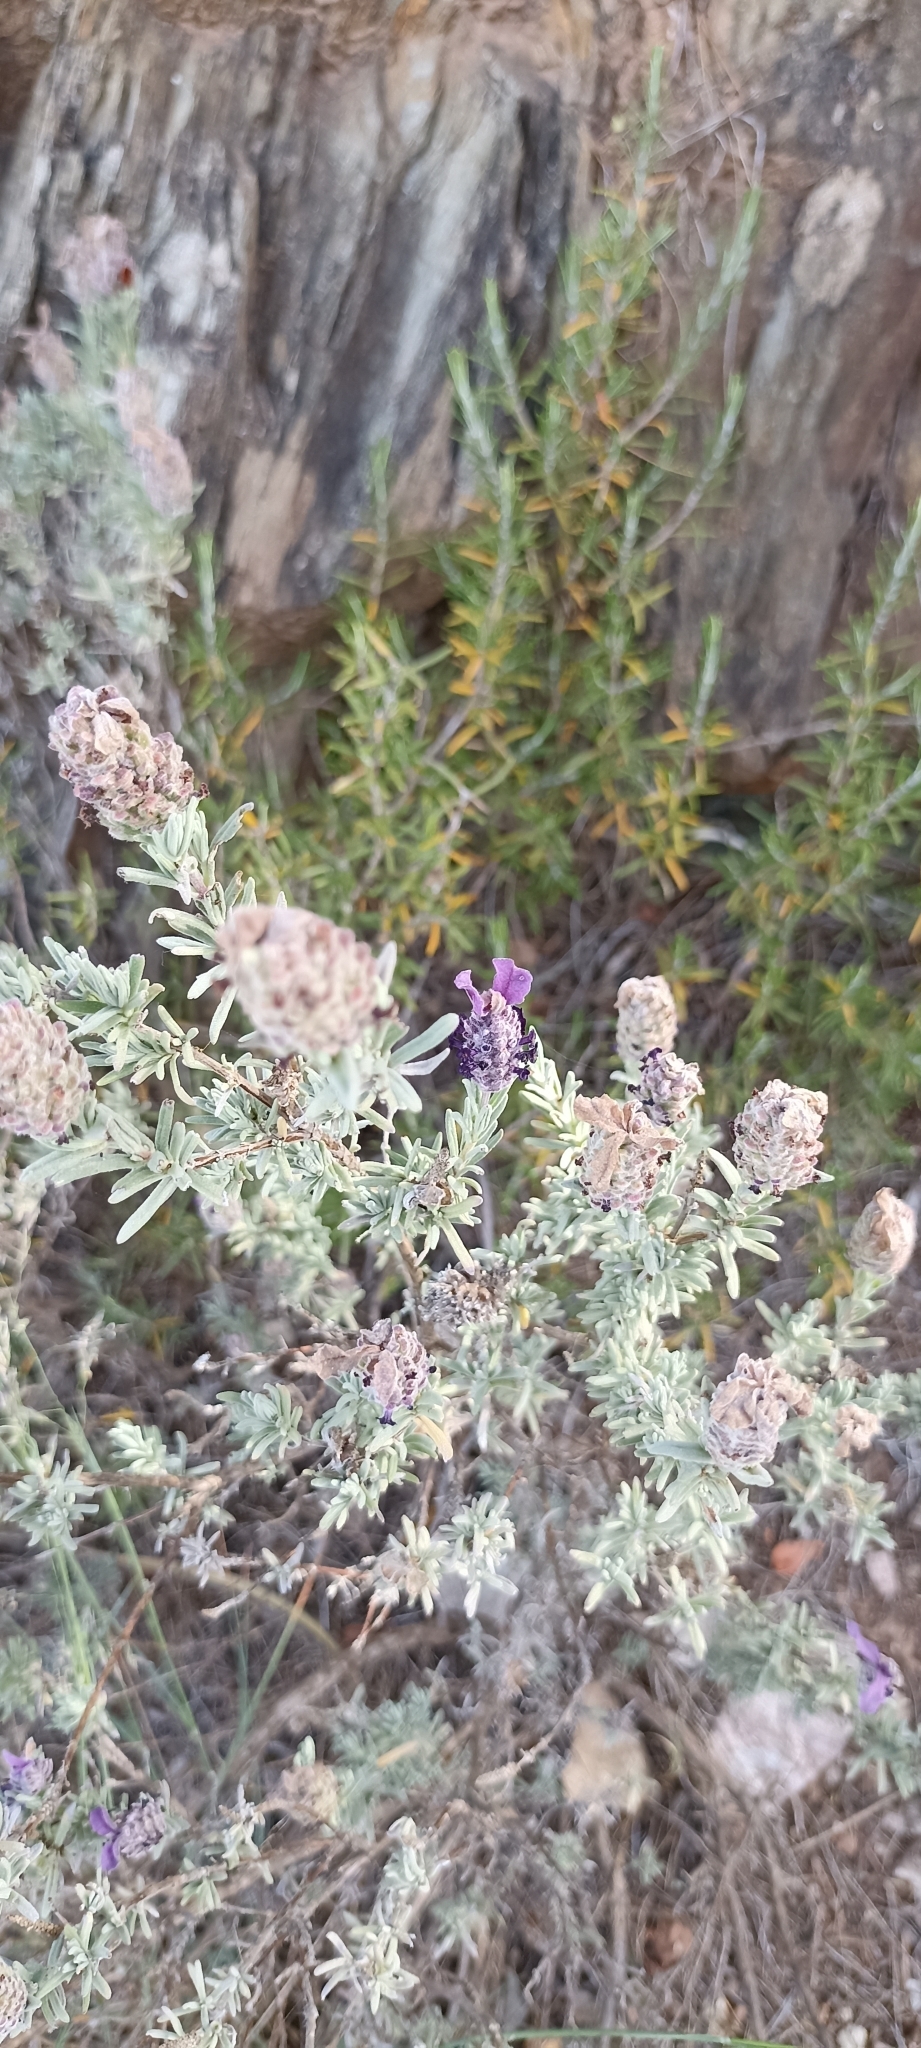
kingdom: Plantae
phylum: Tracheophyta
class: Magnoliopsida
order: Lamiales
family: Lamiaceae
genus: Lavandula
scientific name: Lavandula stoechas
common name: French lavender
